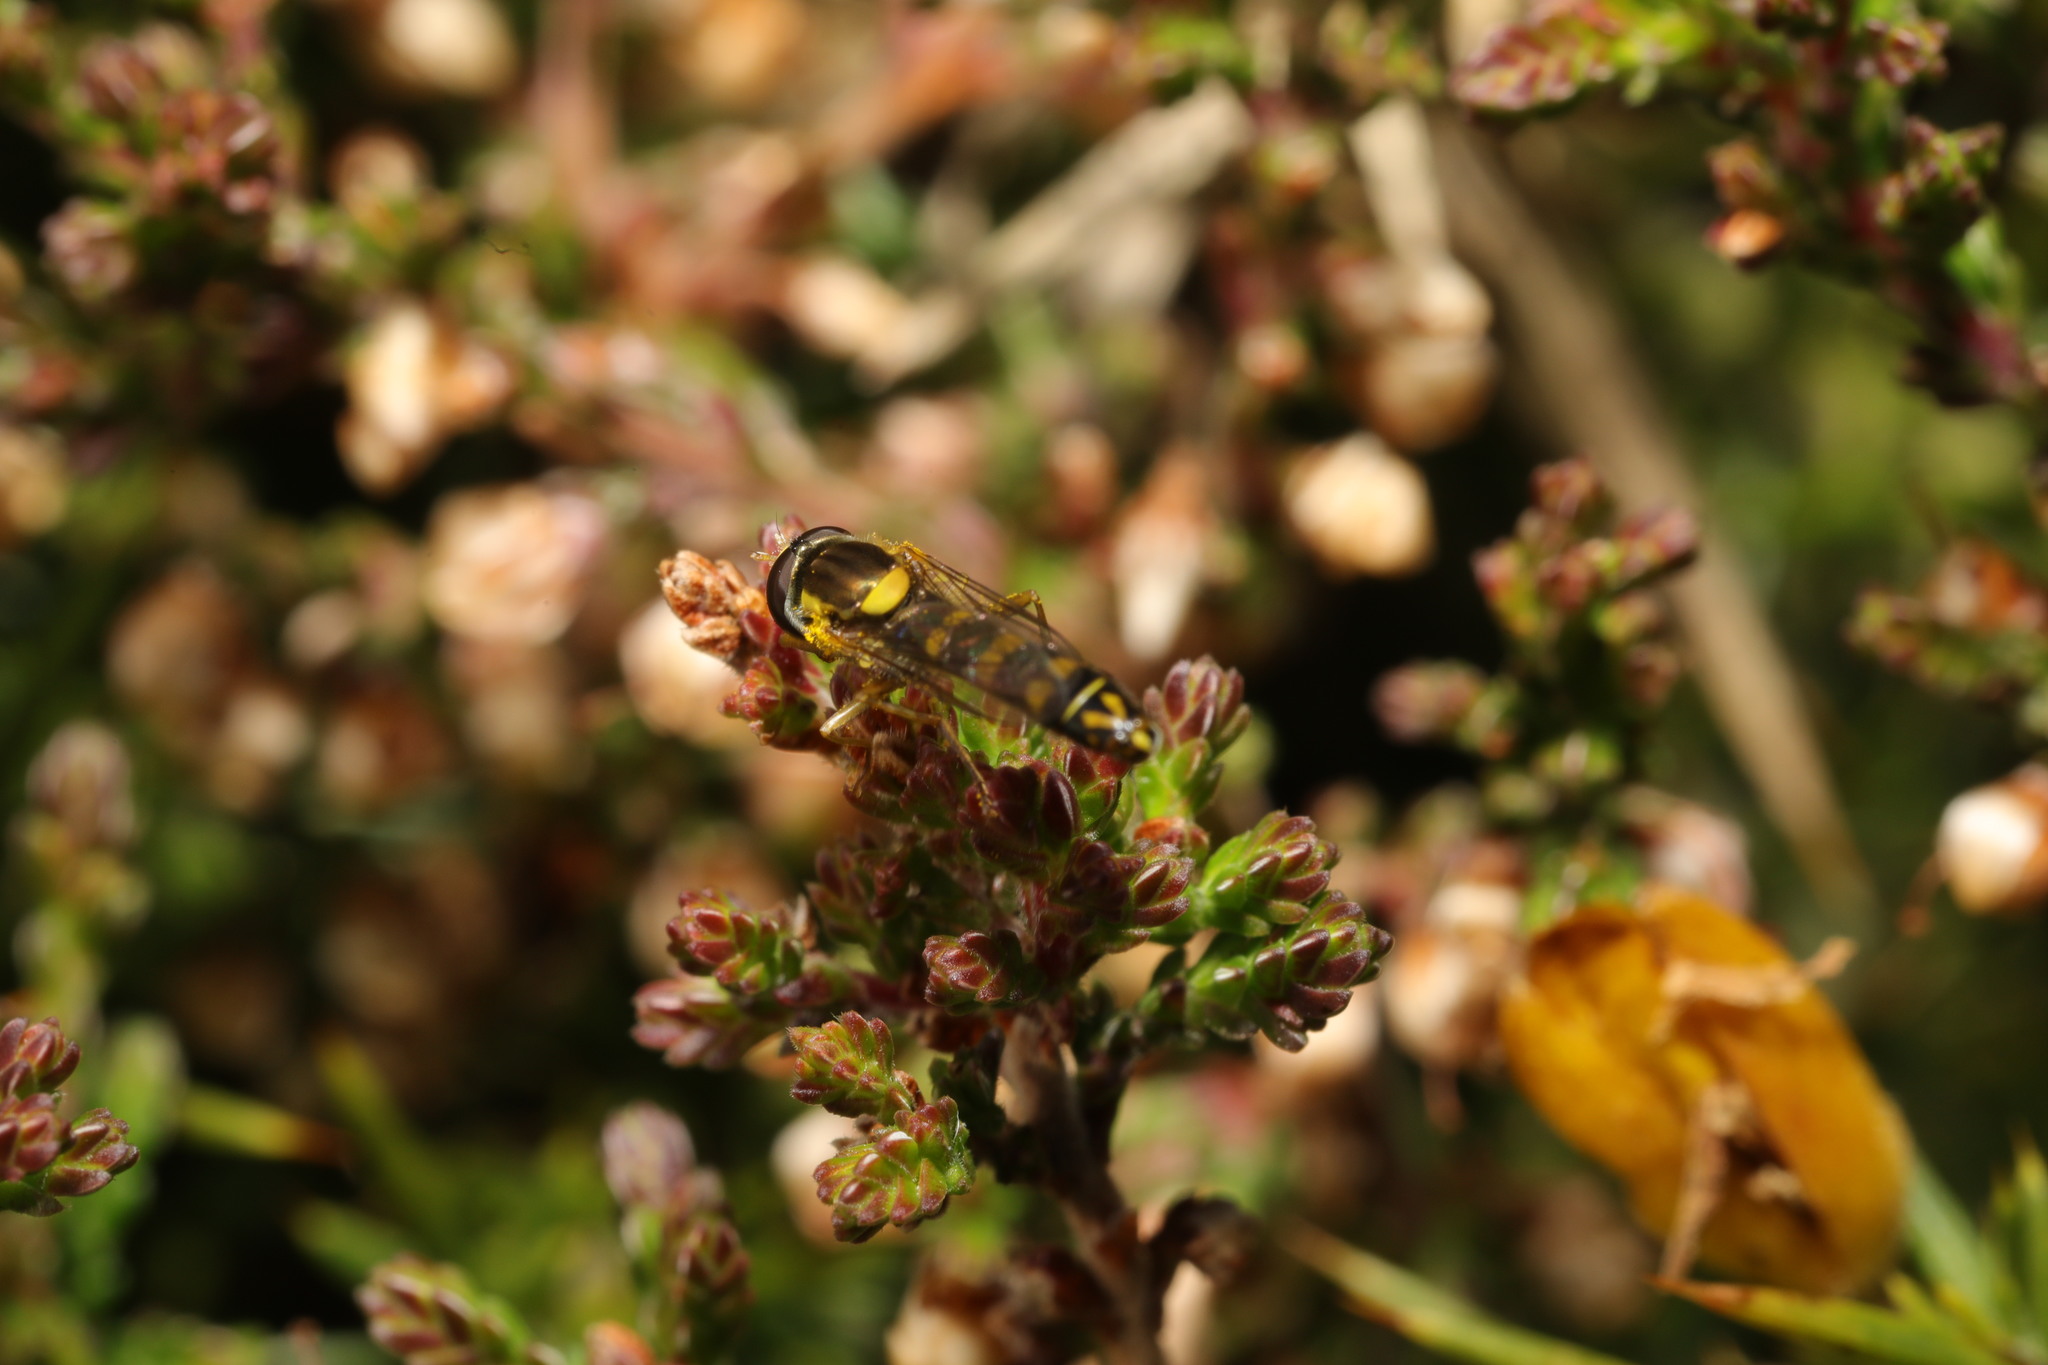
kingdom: Animalia
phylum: Arthropoda
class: Insecta
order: Diptera
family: Syrphidae
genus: Sphaerophoria
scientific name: Sphaerophoria scripta
